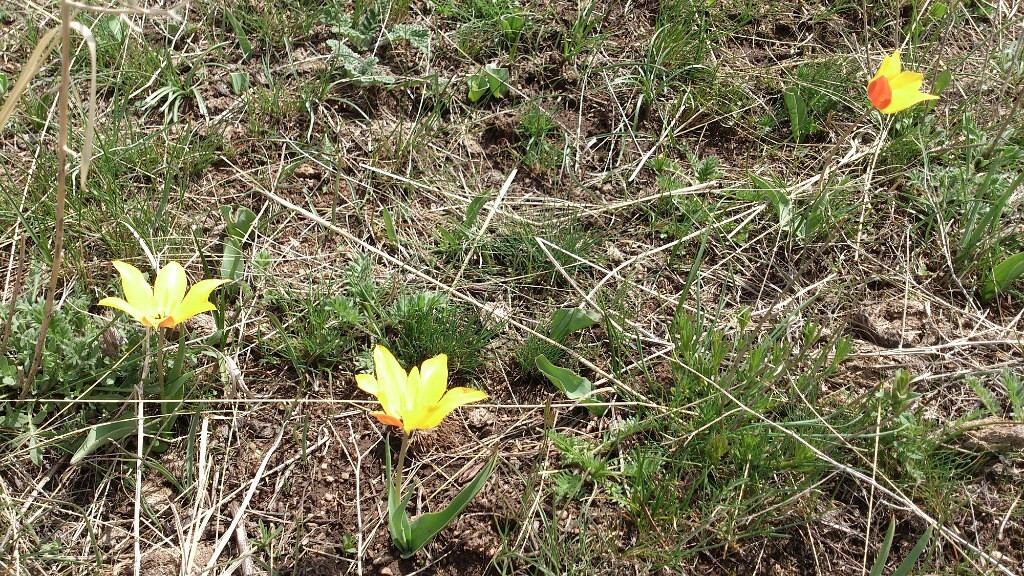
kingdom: Plantae
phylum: Tracheophyta
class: Liliopsida
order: Liliales
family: Liliaceae
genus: Tulipa
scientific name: Tulipa lehmanniana
